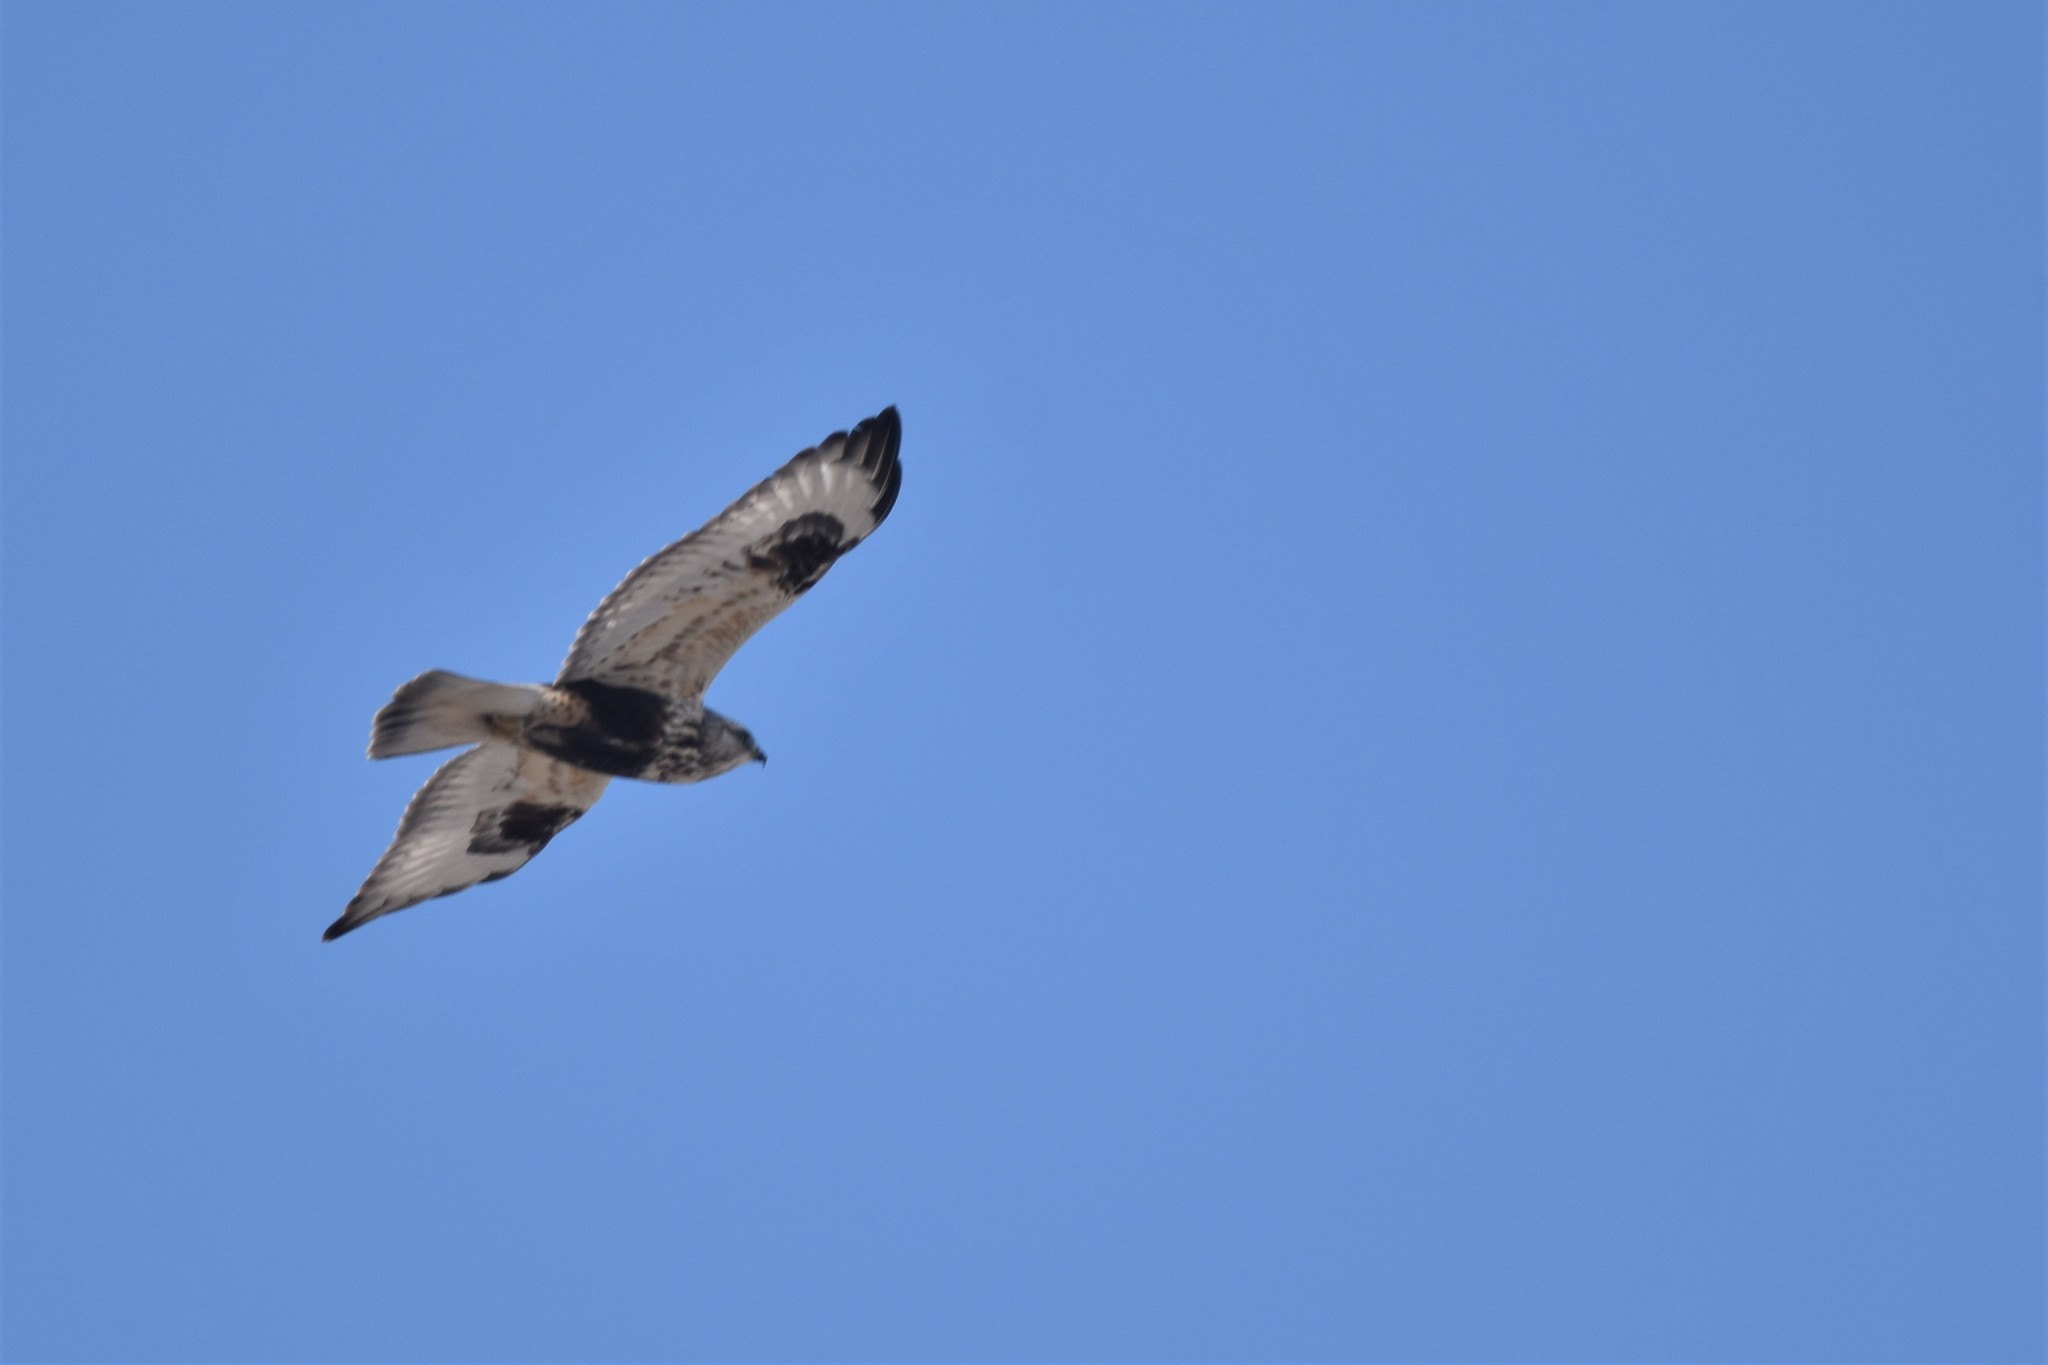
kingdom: Animalia
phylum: Chordata
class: Aves
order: Accipitriformes
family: Accipitridae
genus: Buteo
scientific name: Buteo lagopus
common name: Rough-legged buzzard
